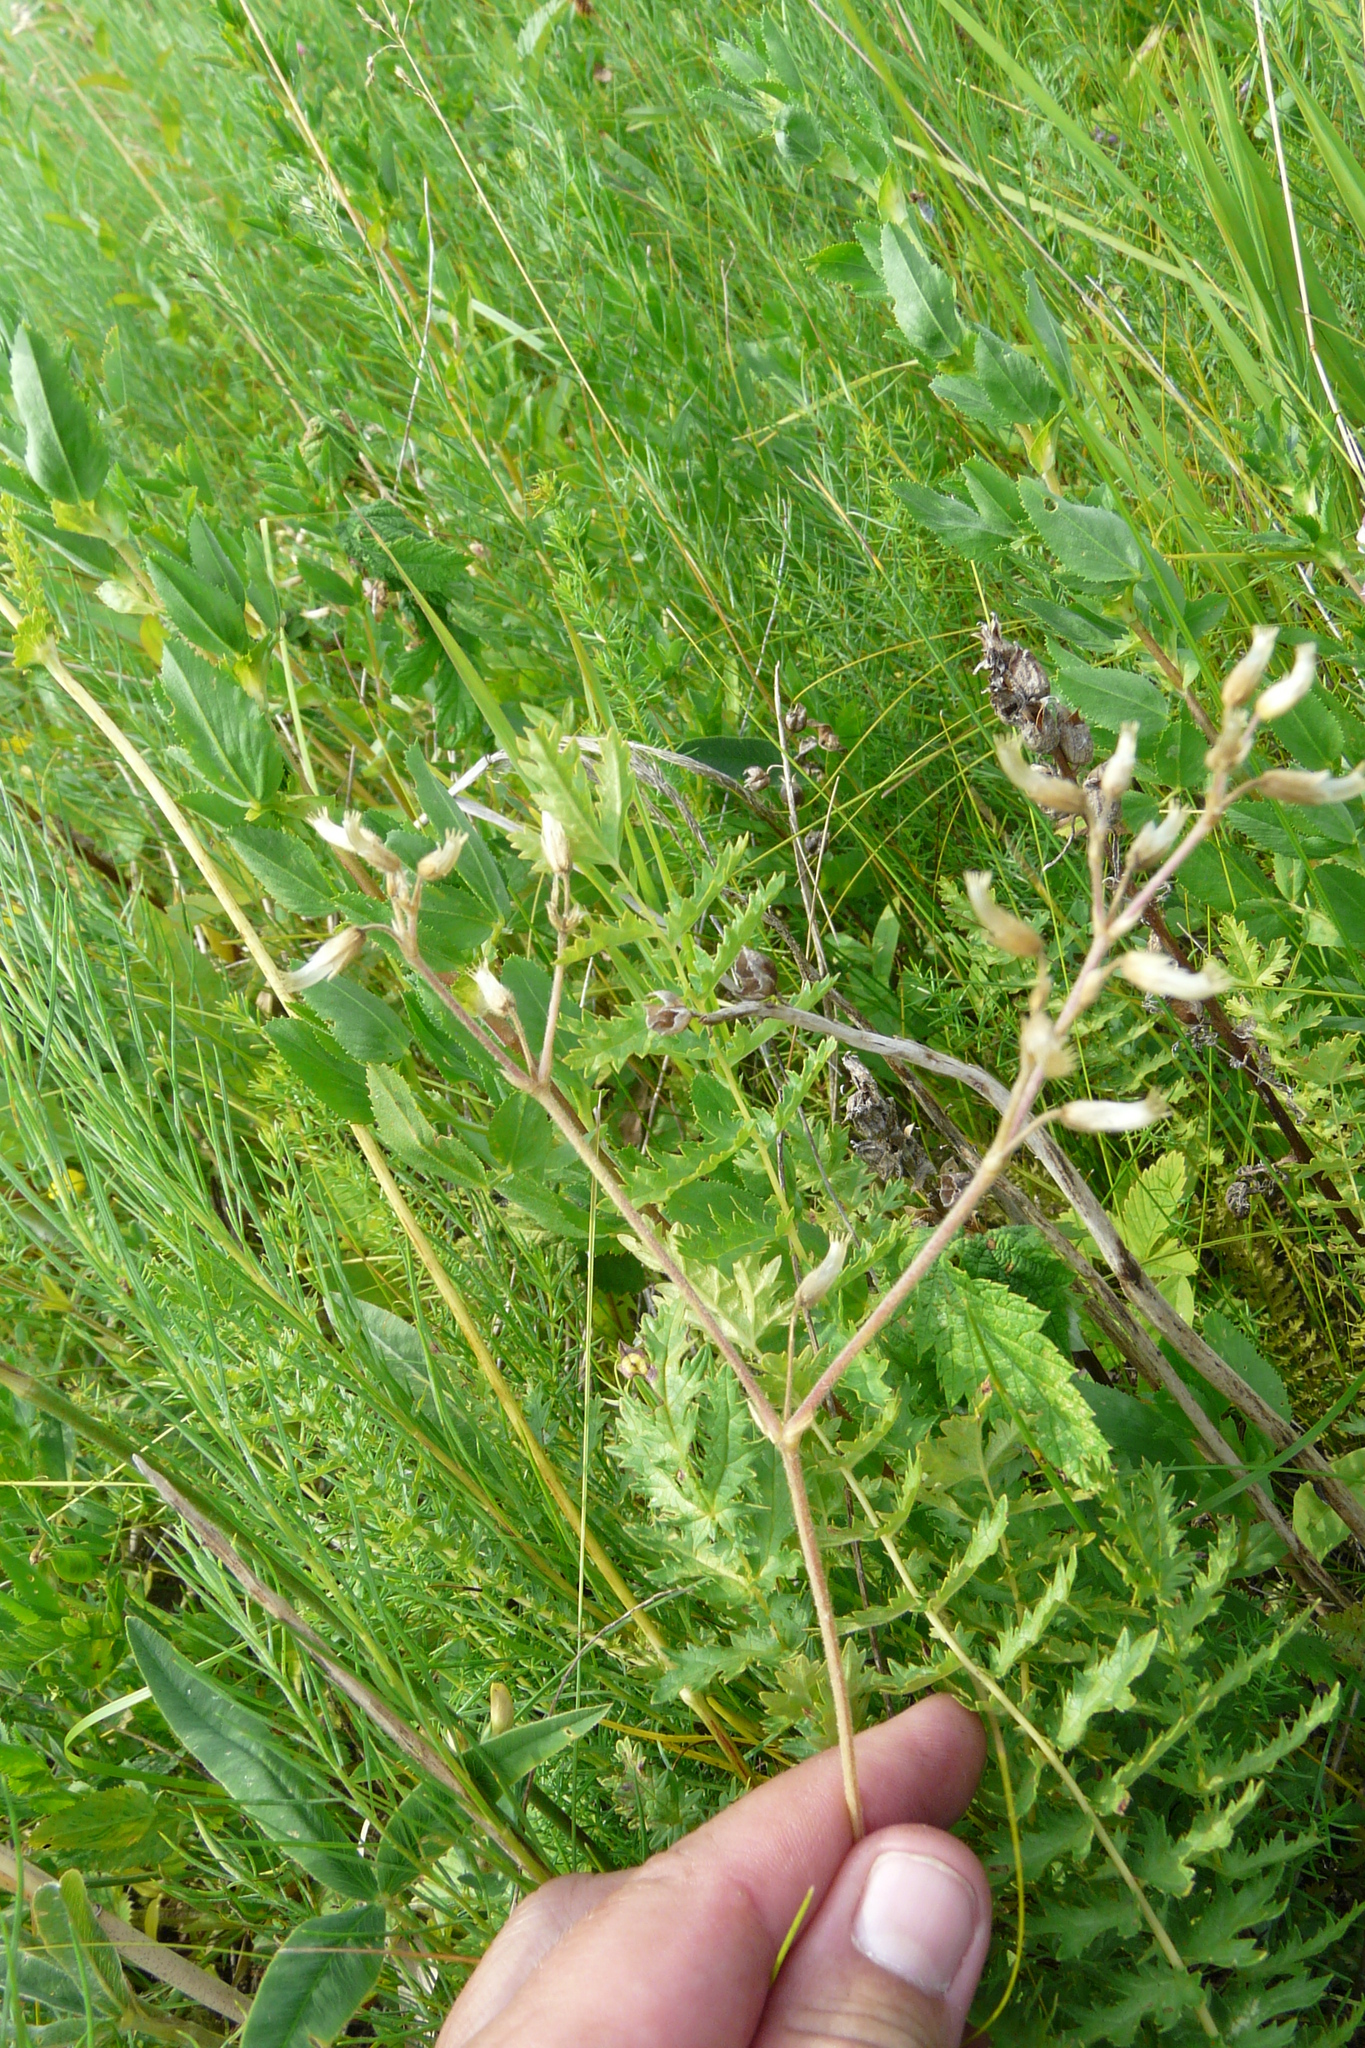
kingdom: Plantae
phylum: Tracheophyta
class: Magnoliopsida
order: Caryophyllales
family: Caryophyllaceae
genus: Cerastium
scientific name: Cerastium holosteoides
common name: Big chickweed
